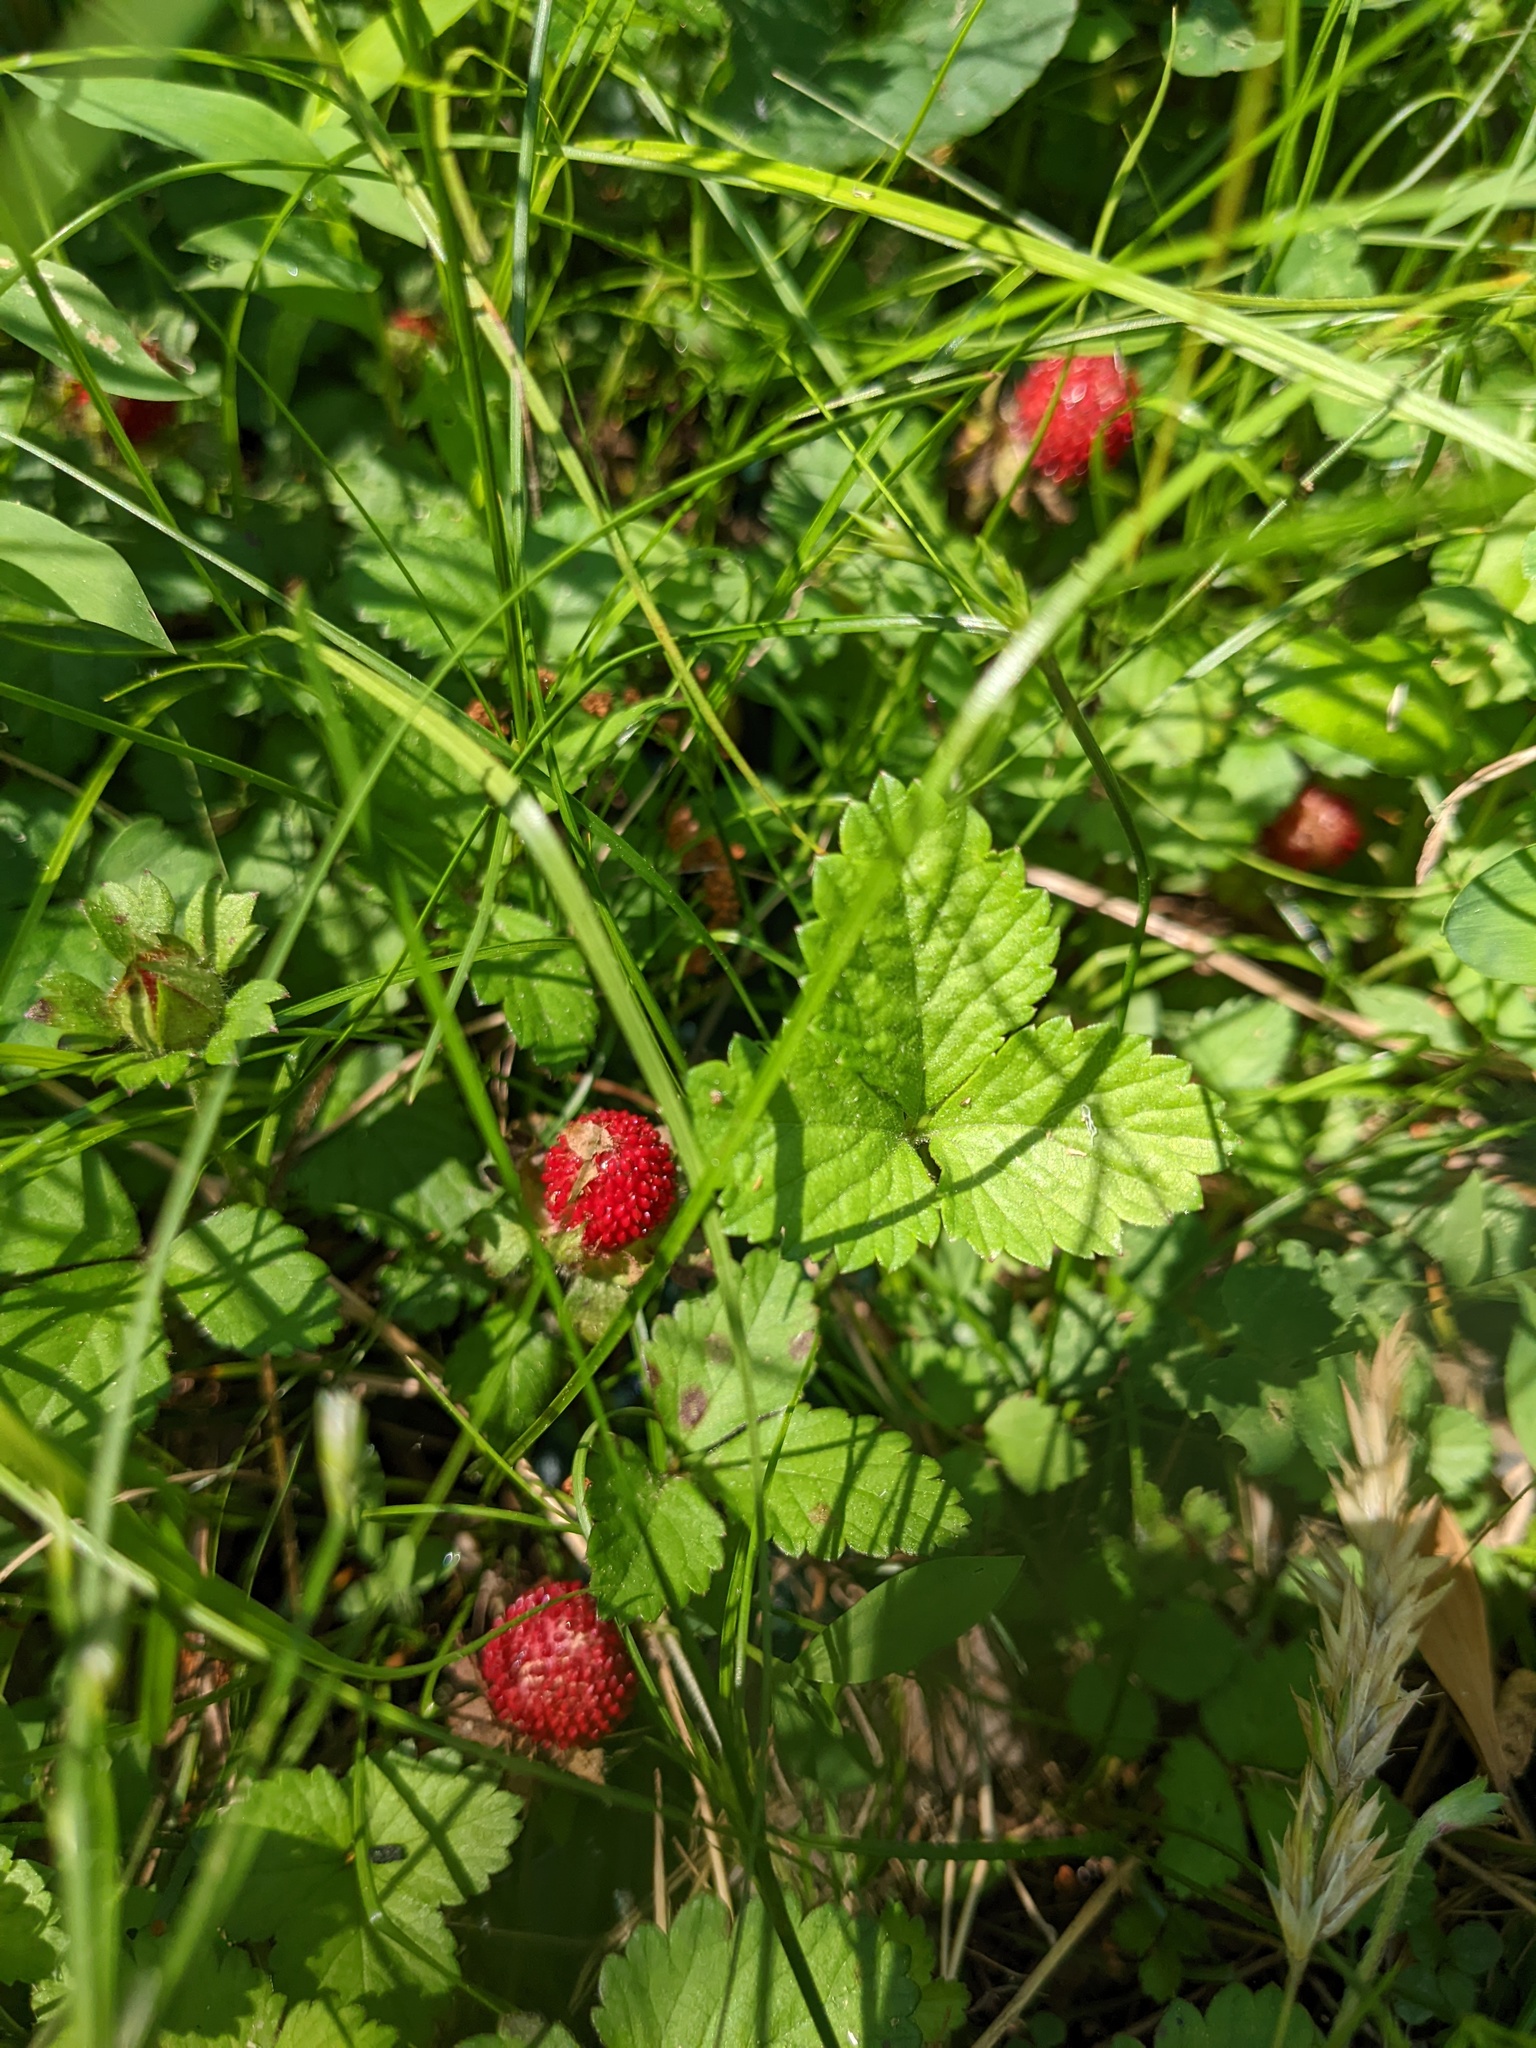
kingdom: Plantae
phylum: Tracheophyta
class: Magnoliopsida
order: Rosales
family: Rosaceae
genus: Potentilla
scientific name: Potentilla indica
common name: Yellow-flowered strawberry
